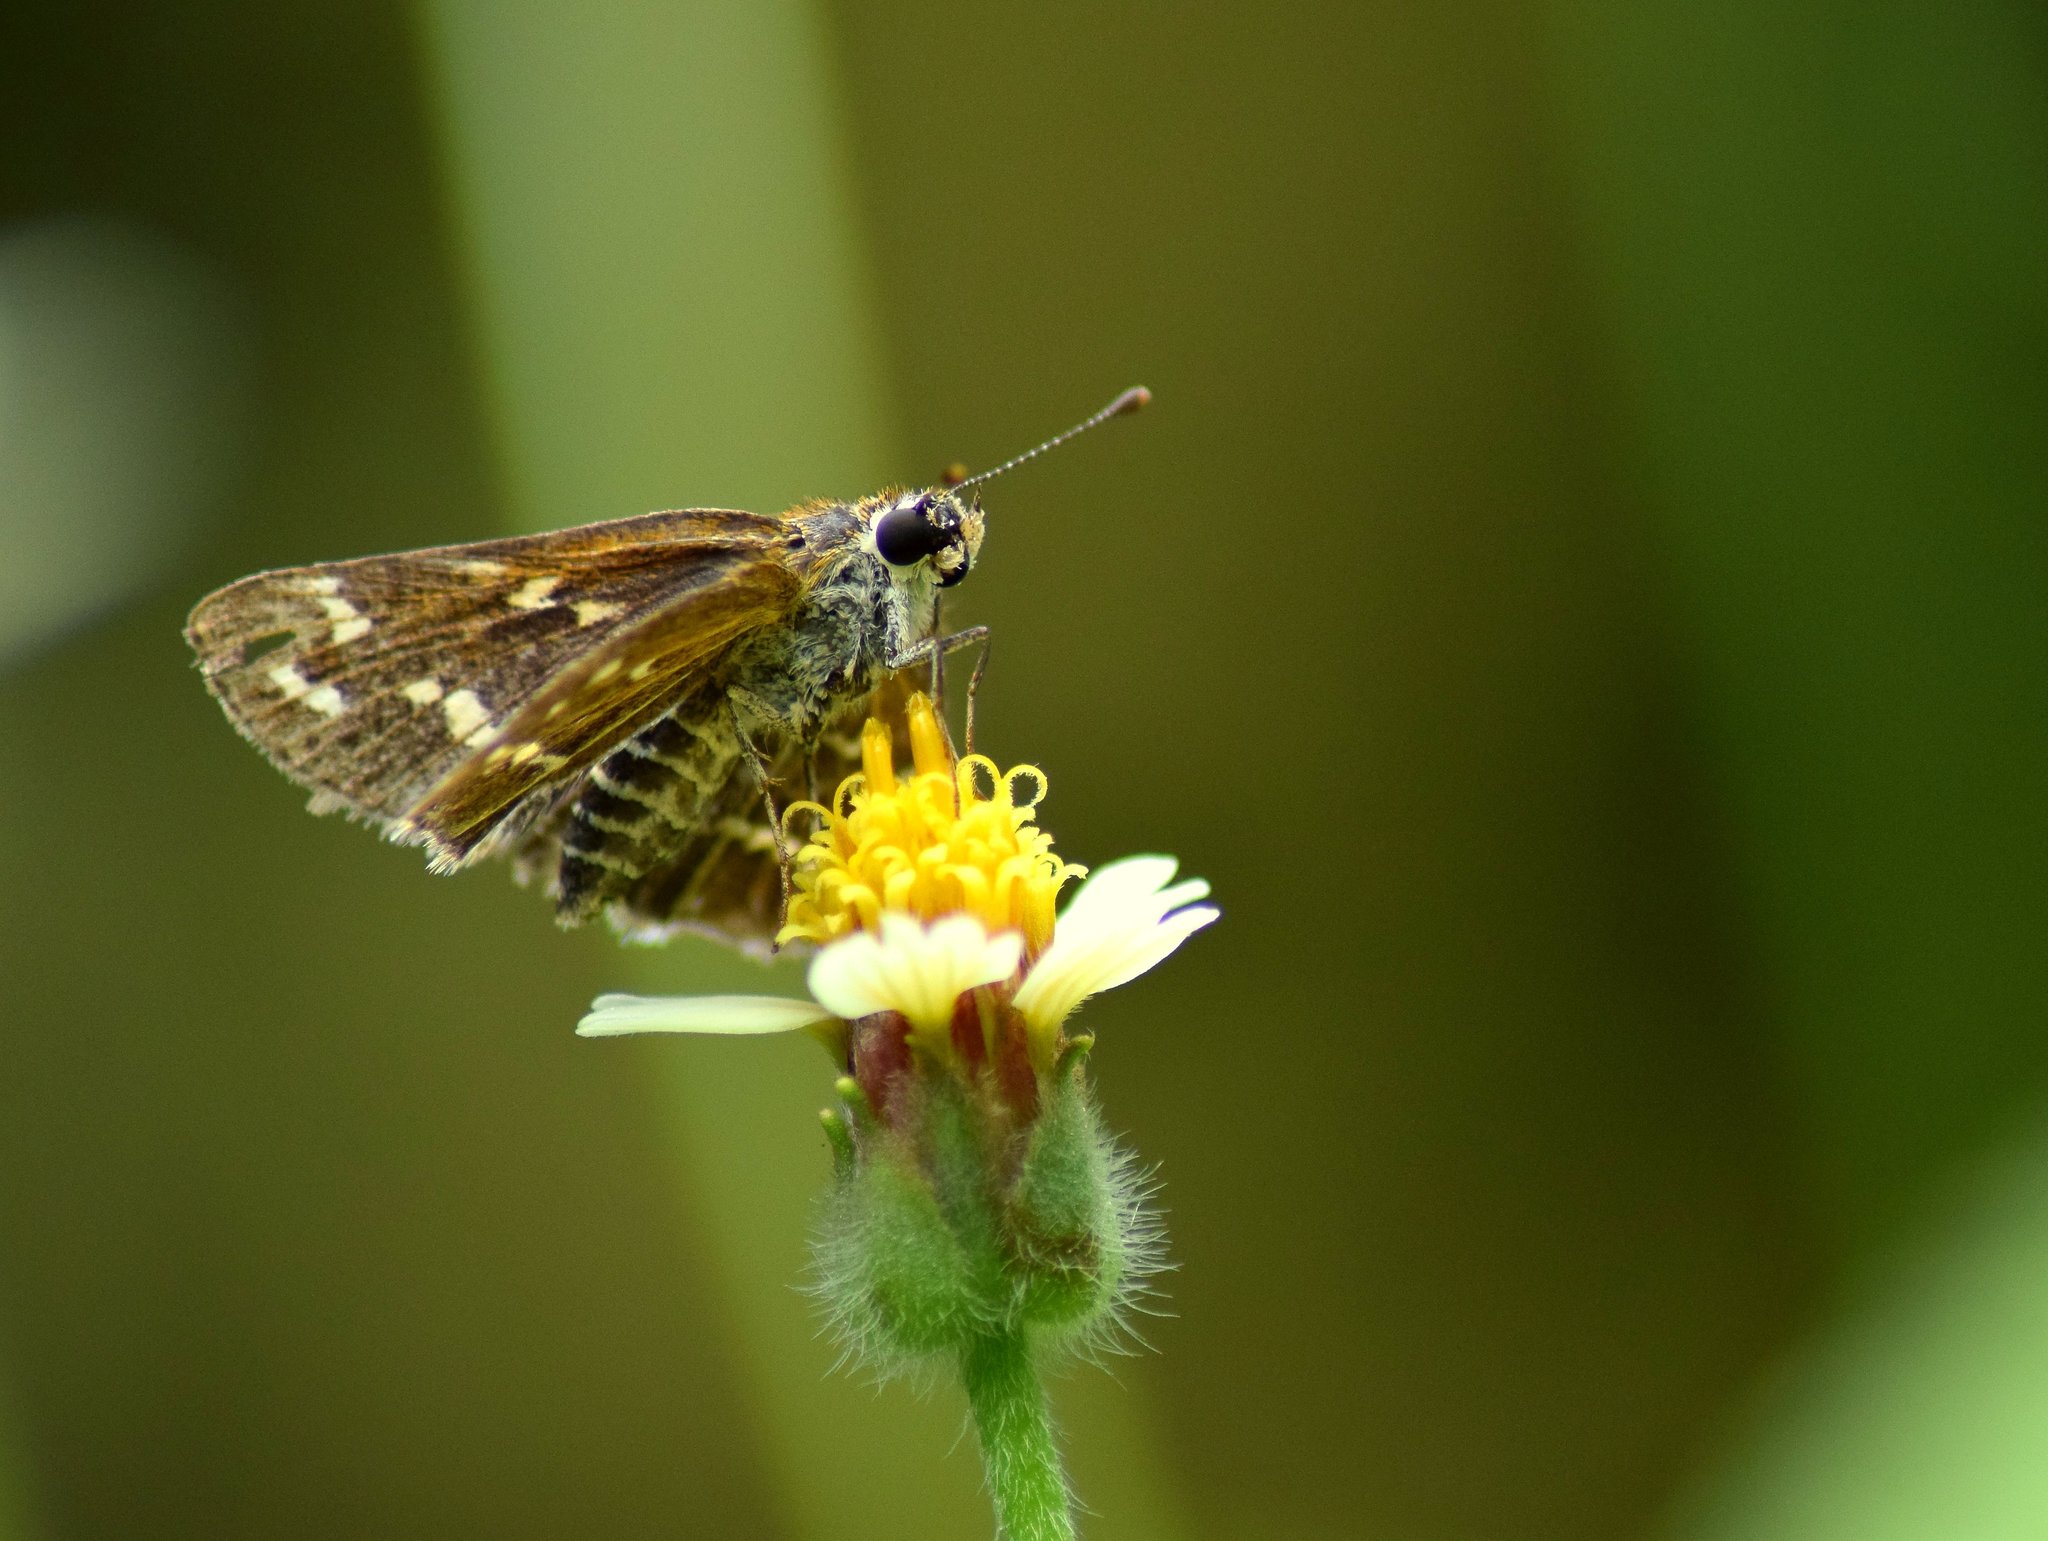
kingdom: Animalia
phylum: Arthropoda
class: Insecta
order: Lepidoptera
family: Hesperiidae
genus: Taractrocera
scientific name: Taractrocera maevius
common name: Common grass-dart
